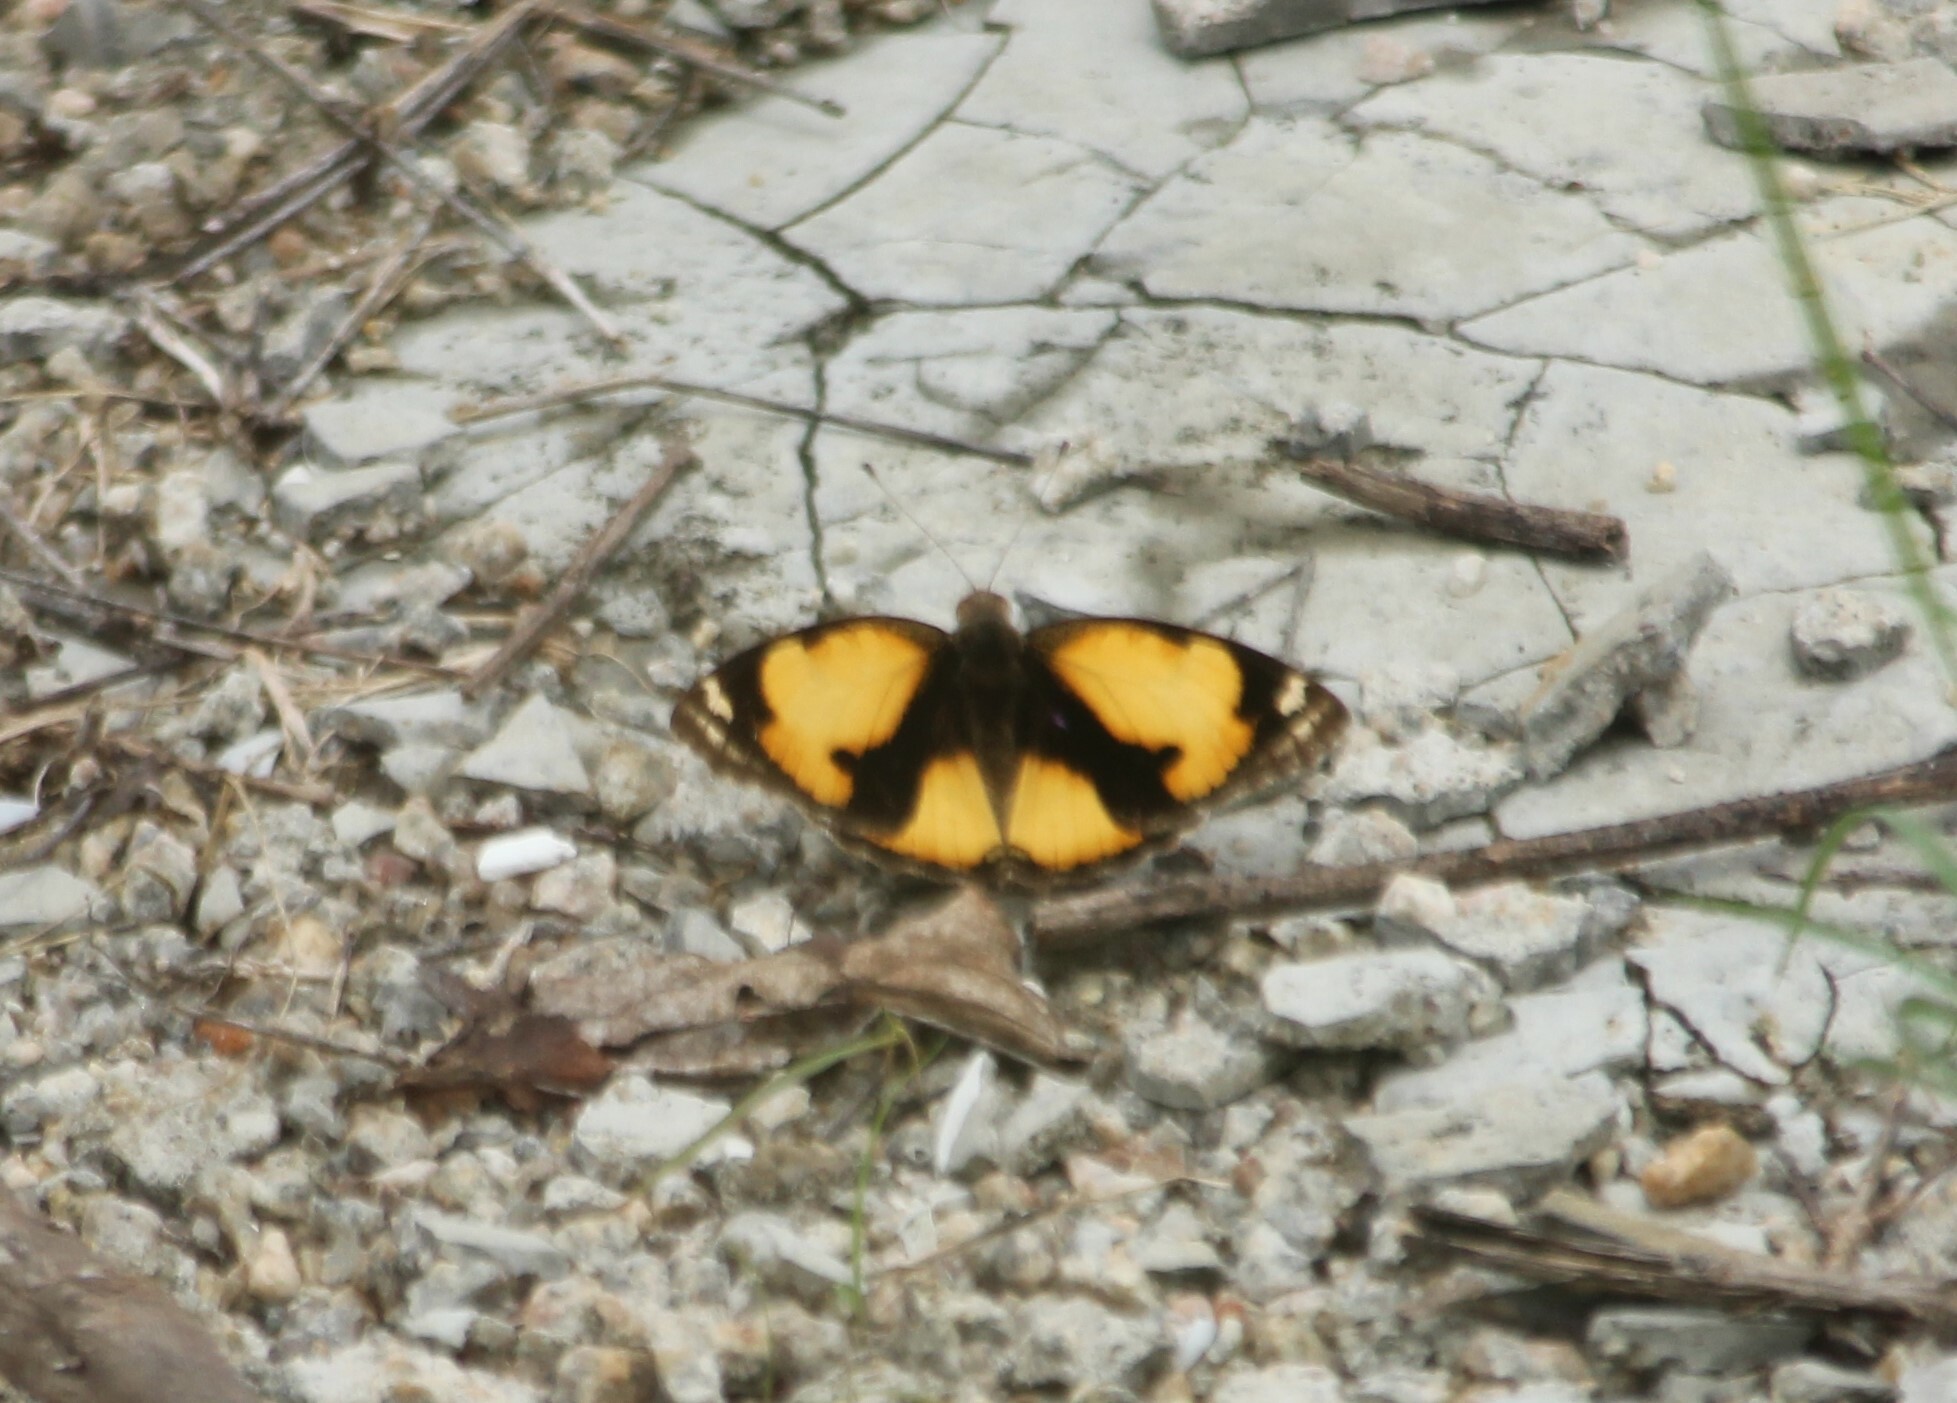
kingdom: Animalia
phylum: Arthropoda
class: Insecta
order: Lepidoptera
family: Nymphalidae
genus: Junonia
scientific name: Junonia hierta
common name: Yellow pansy
